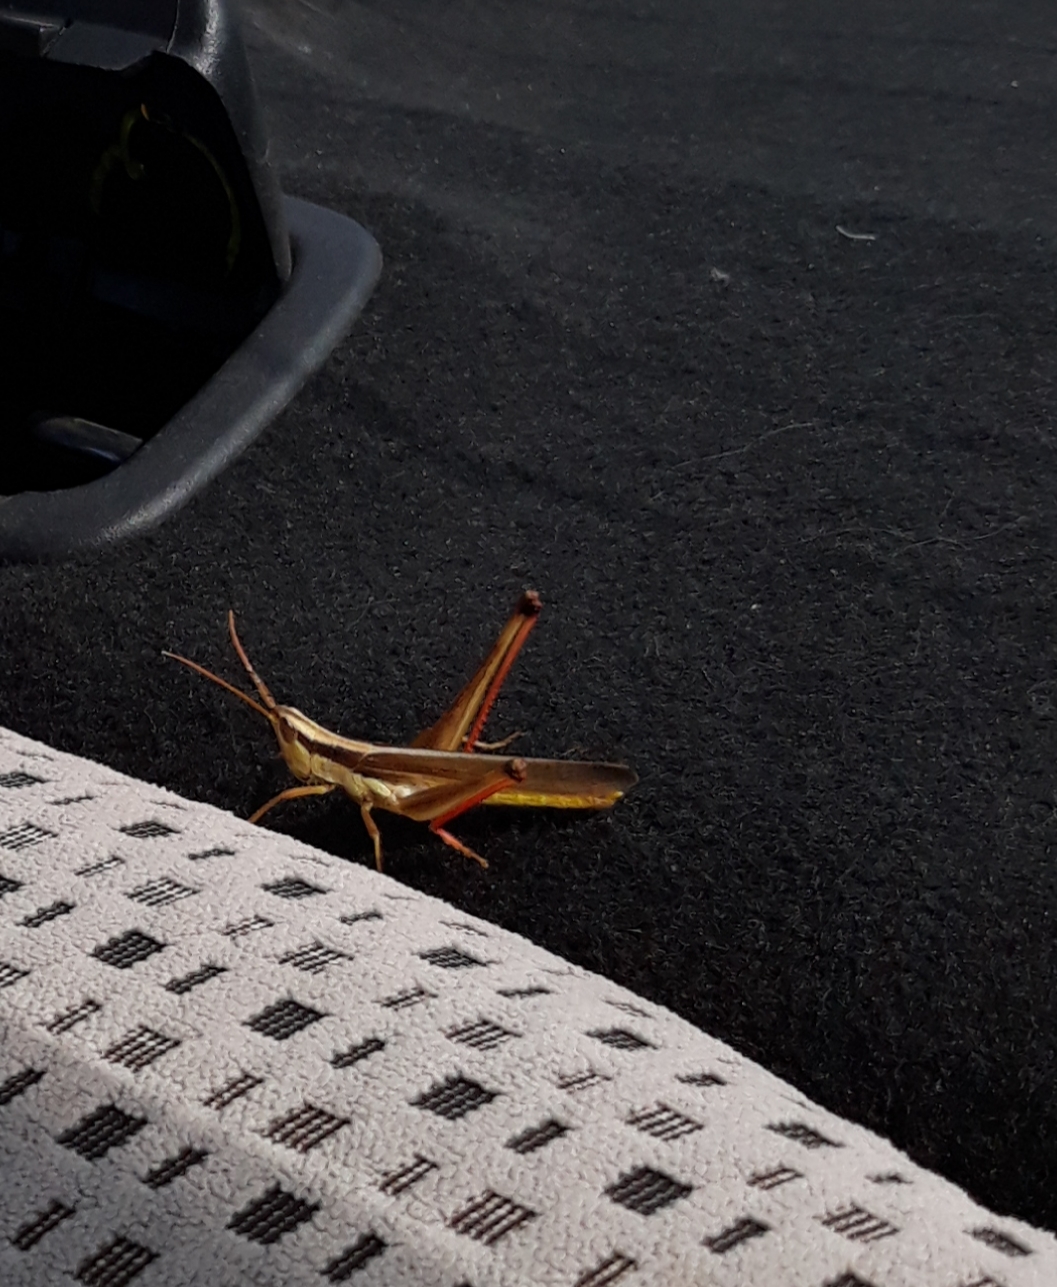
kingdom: Animalia
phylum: Arthropoda
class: Insecta
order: Orthoptera
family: Acrididae
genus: Mermiria
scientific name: Mermiria bivittata
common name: Two-striped mermiria grasshopper
